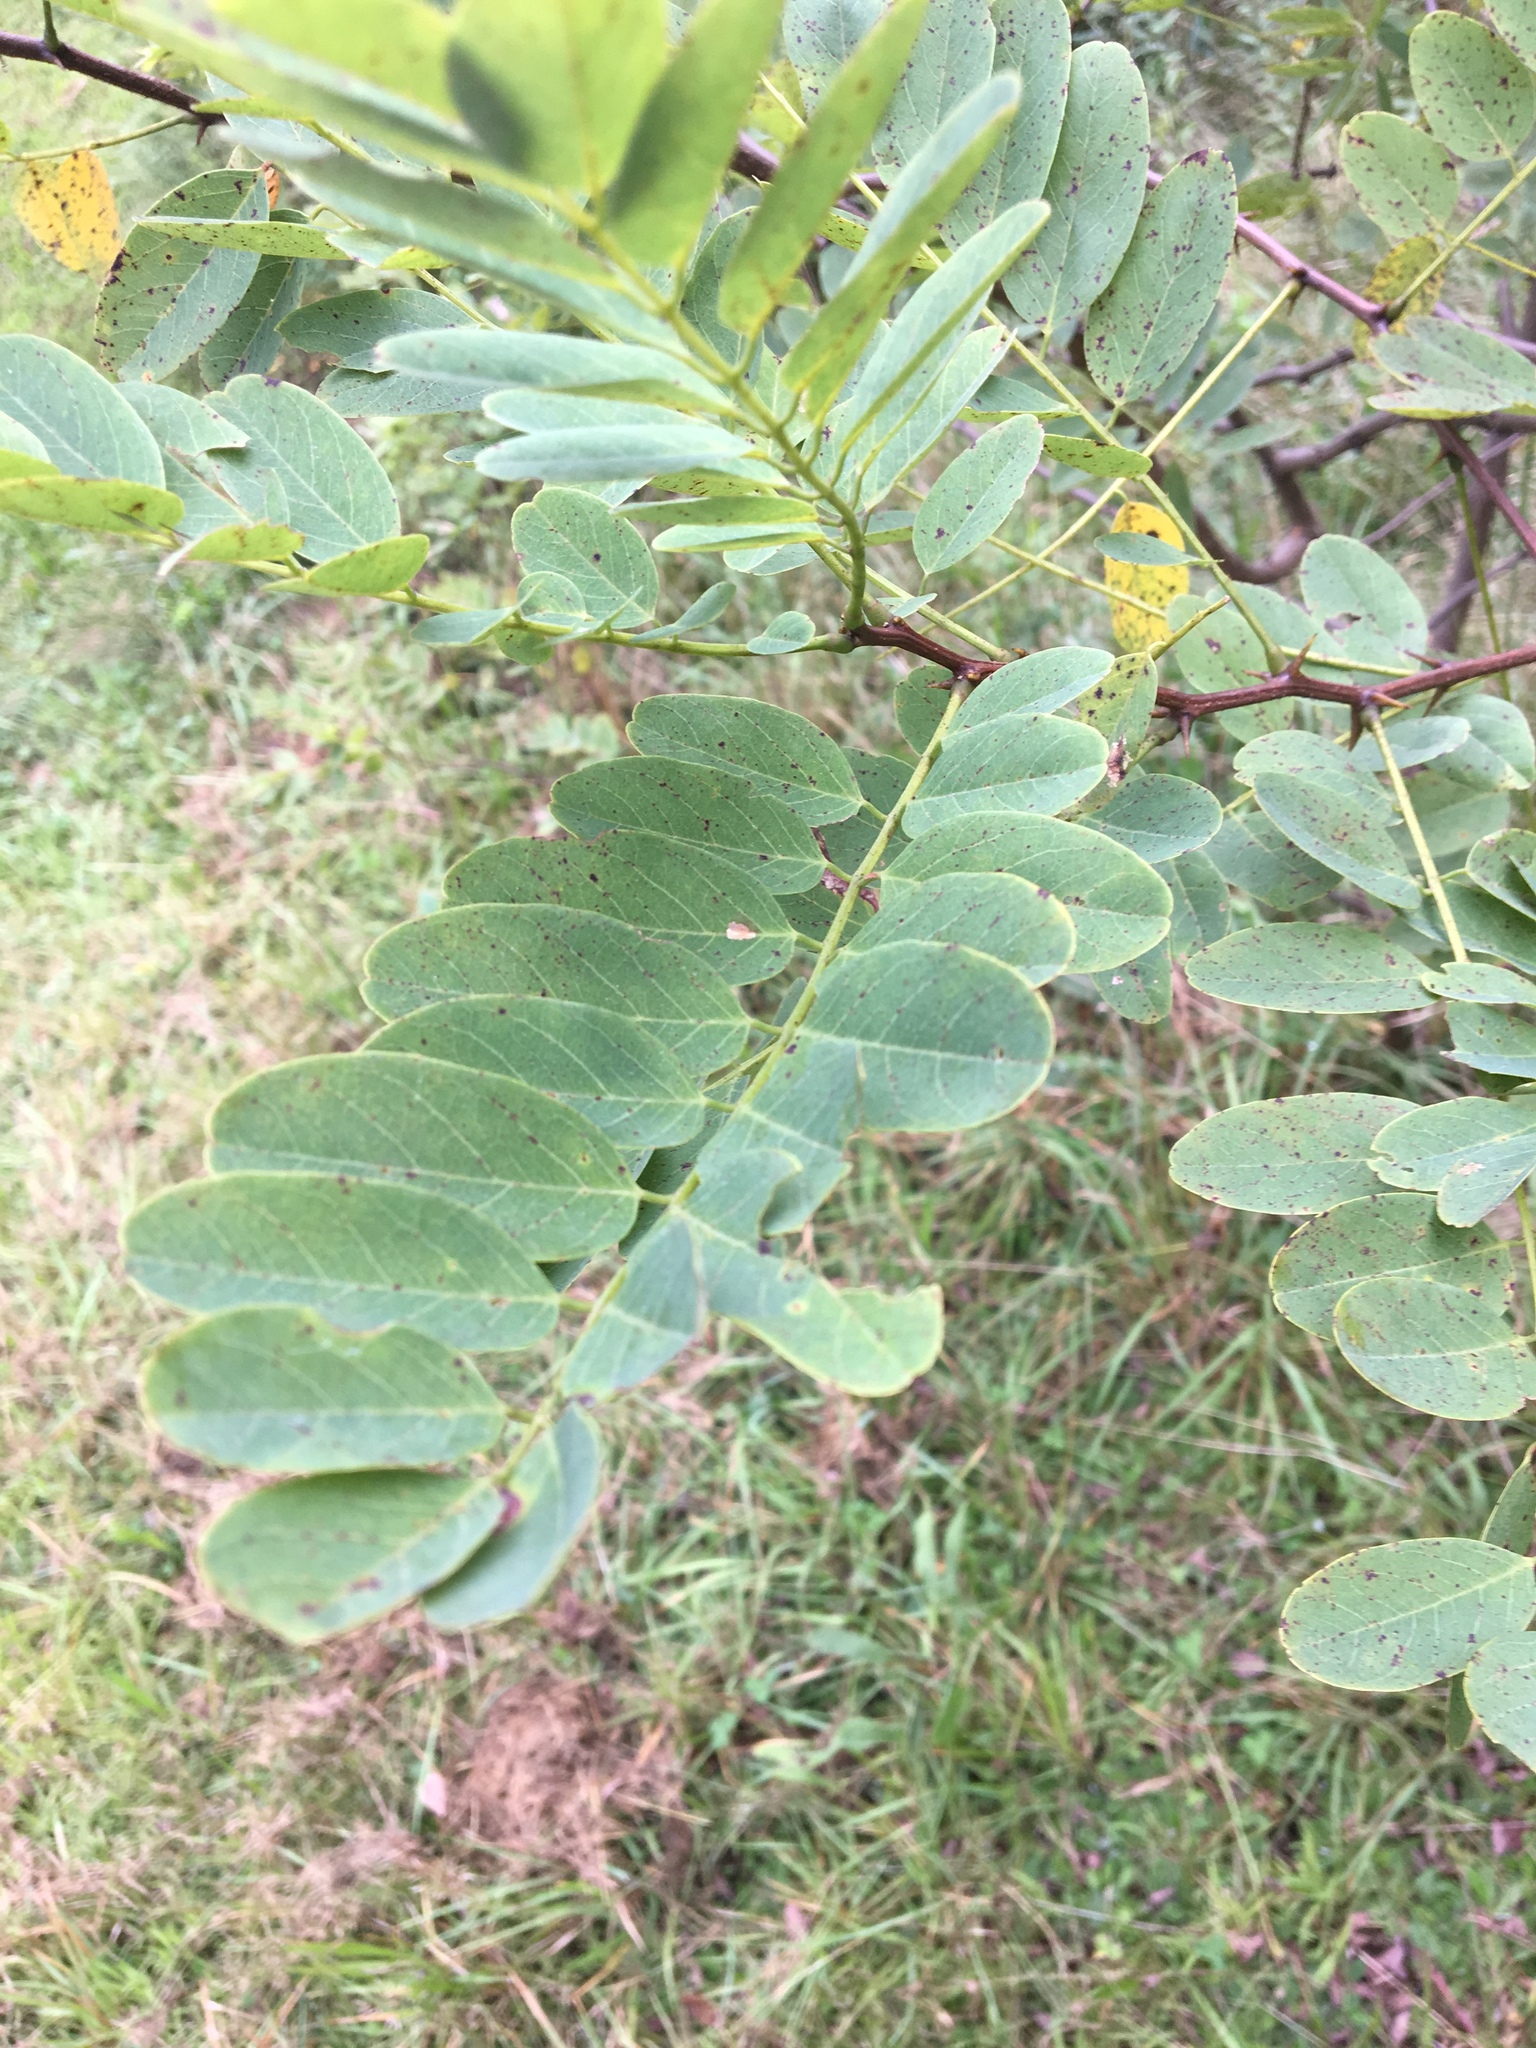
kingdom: Plantae
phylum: Tracheophyta
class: Magnoliopsida
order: Fabales
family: Fabaceae
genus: Robinia
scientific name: Robinia pseudoacacia
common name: Black locust
